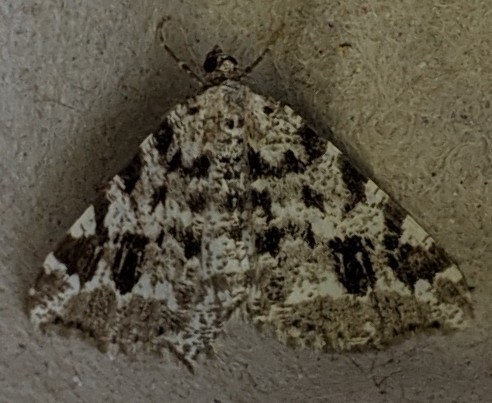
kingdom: Animalia
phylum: Arthropoda
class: Insecta
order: Lepidoptera
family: Geometridae
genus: Macaria
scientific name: Macaria oweni
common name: Owen's angle
